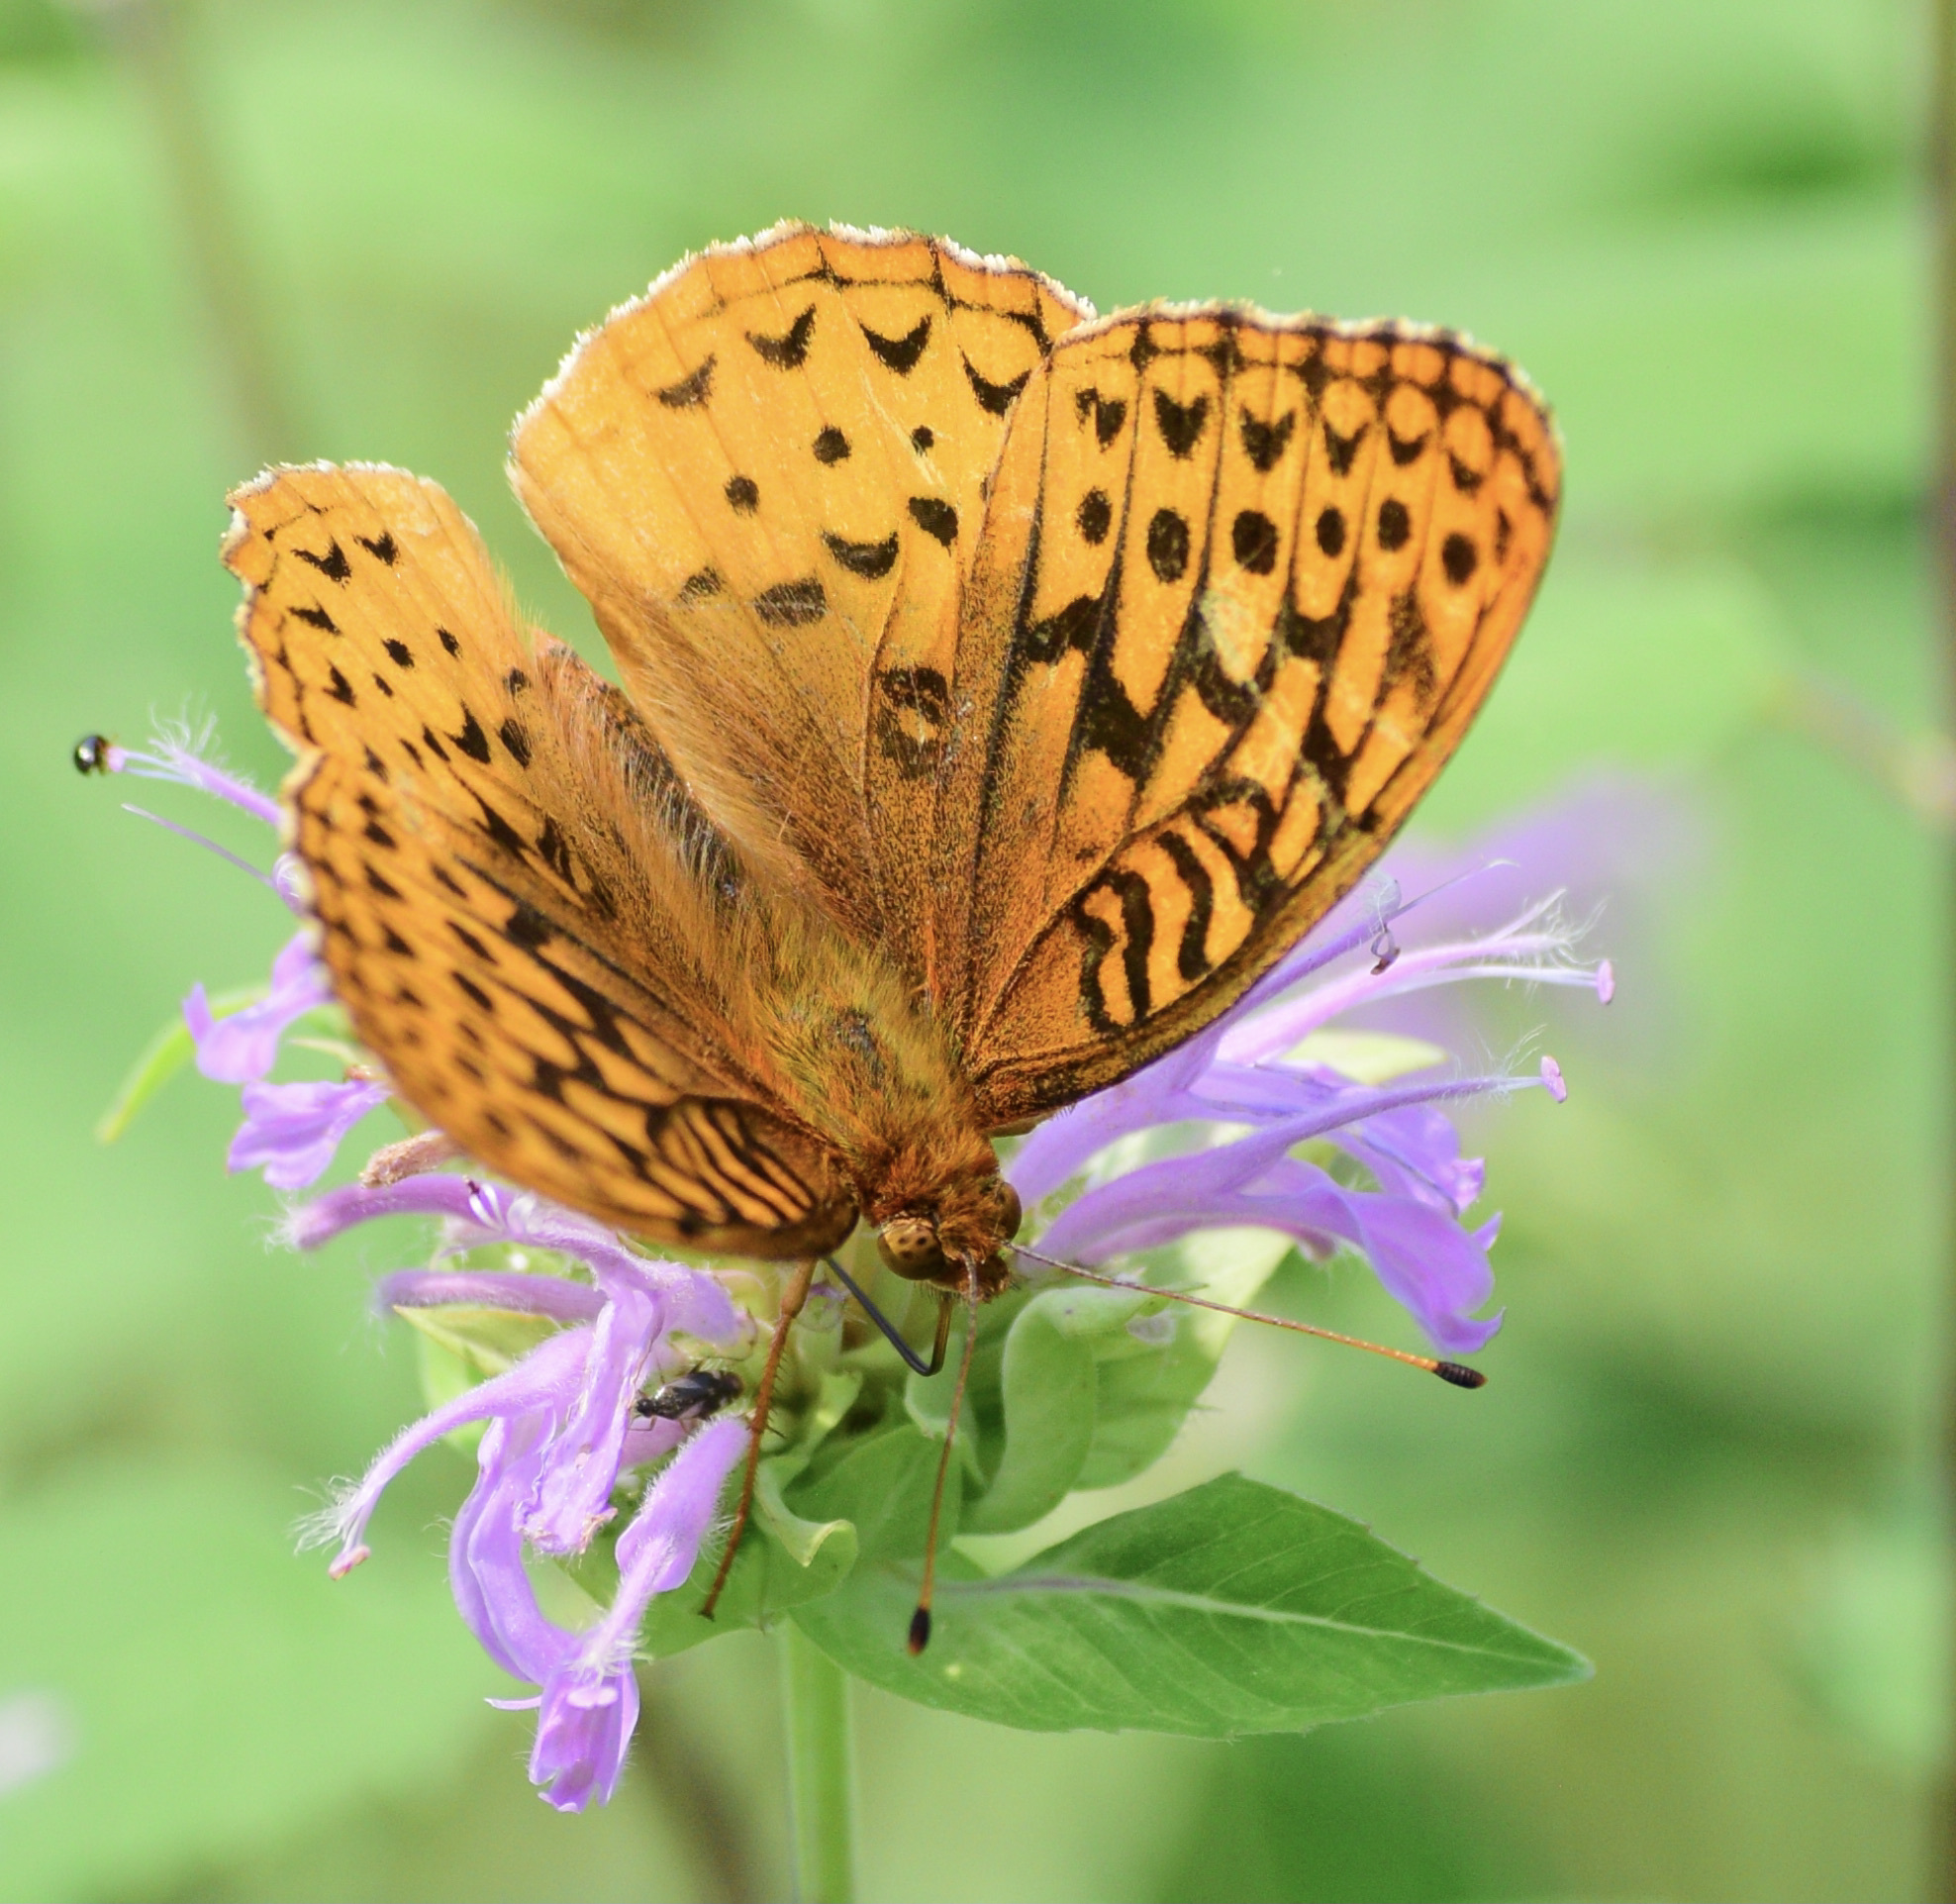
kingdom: Animalia
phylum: Arthropoda
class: Insecta
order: Lepidoptera
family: Nymphalidae
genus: Speyeria
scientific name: Speyeria cybele
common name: Great spangled fritillary
